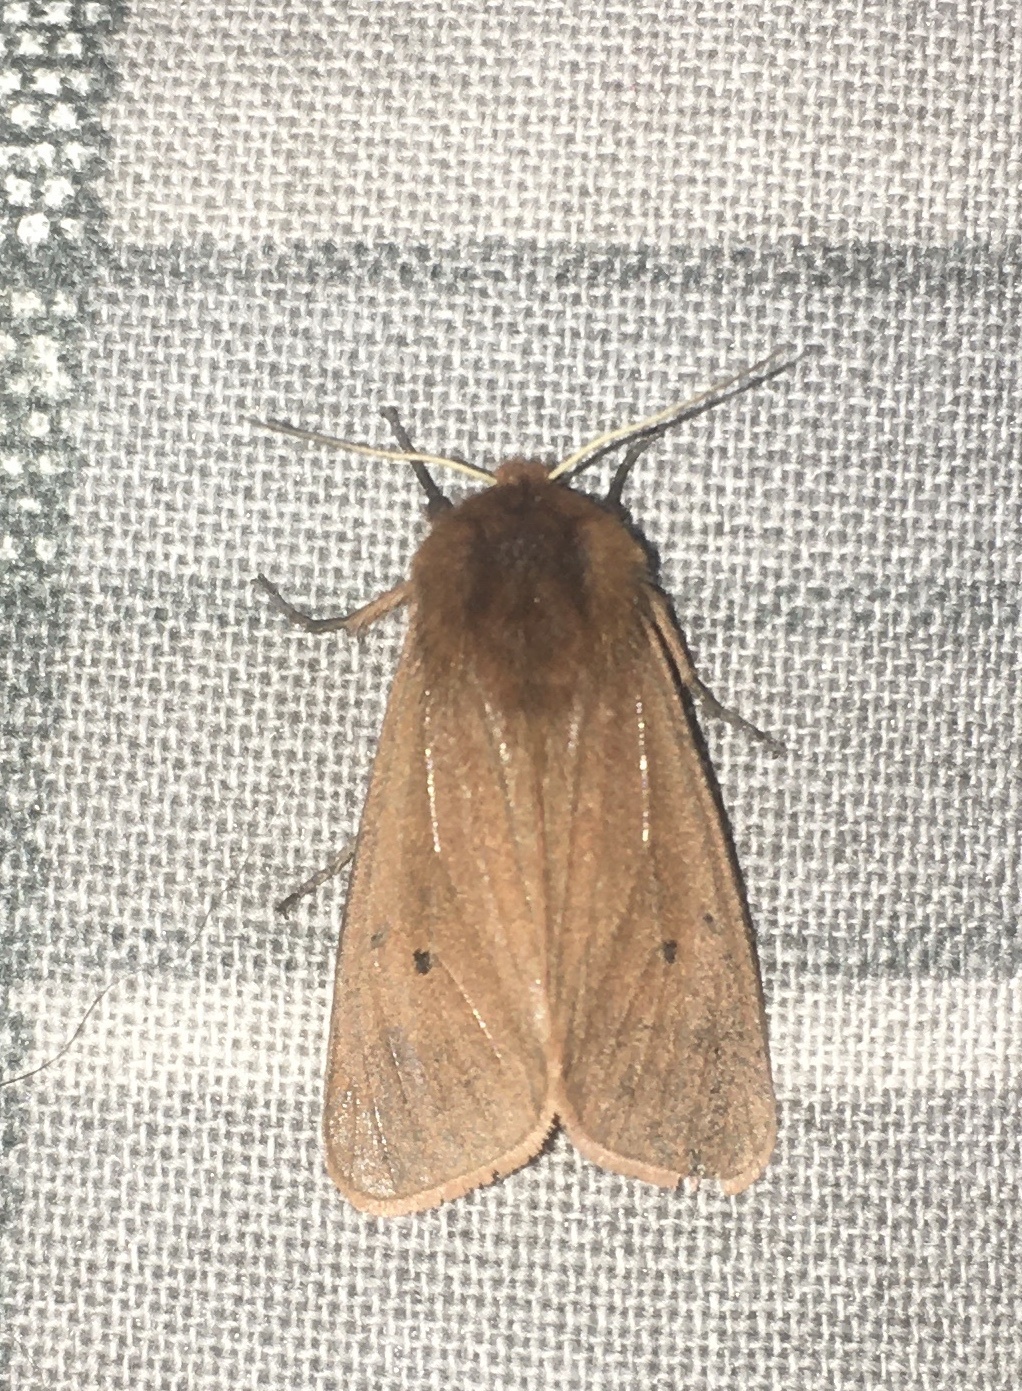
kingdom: Animalia
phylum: Arthropoda
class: Insecta
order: Lepidoptera
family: Erebidae
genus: Phragmatobia
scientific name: Phragmatobia fuliginosa
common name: Ruby tiger
